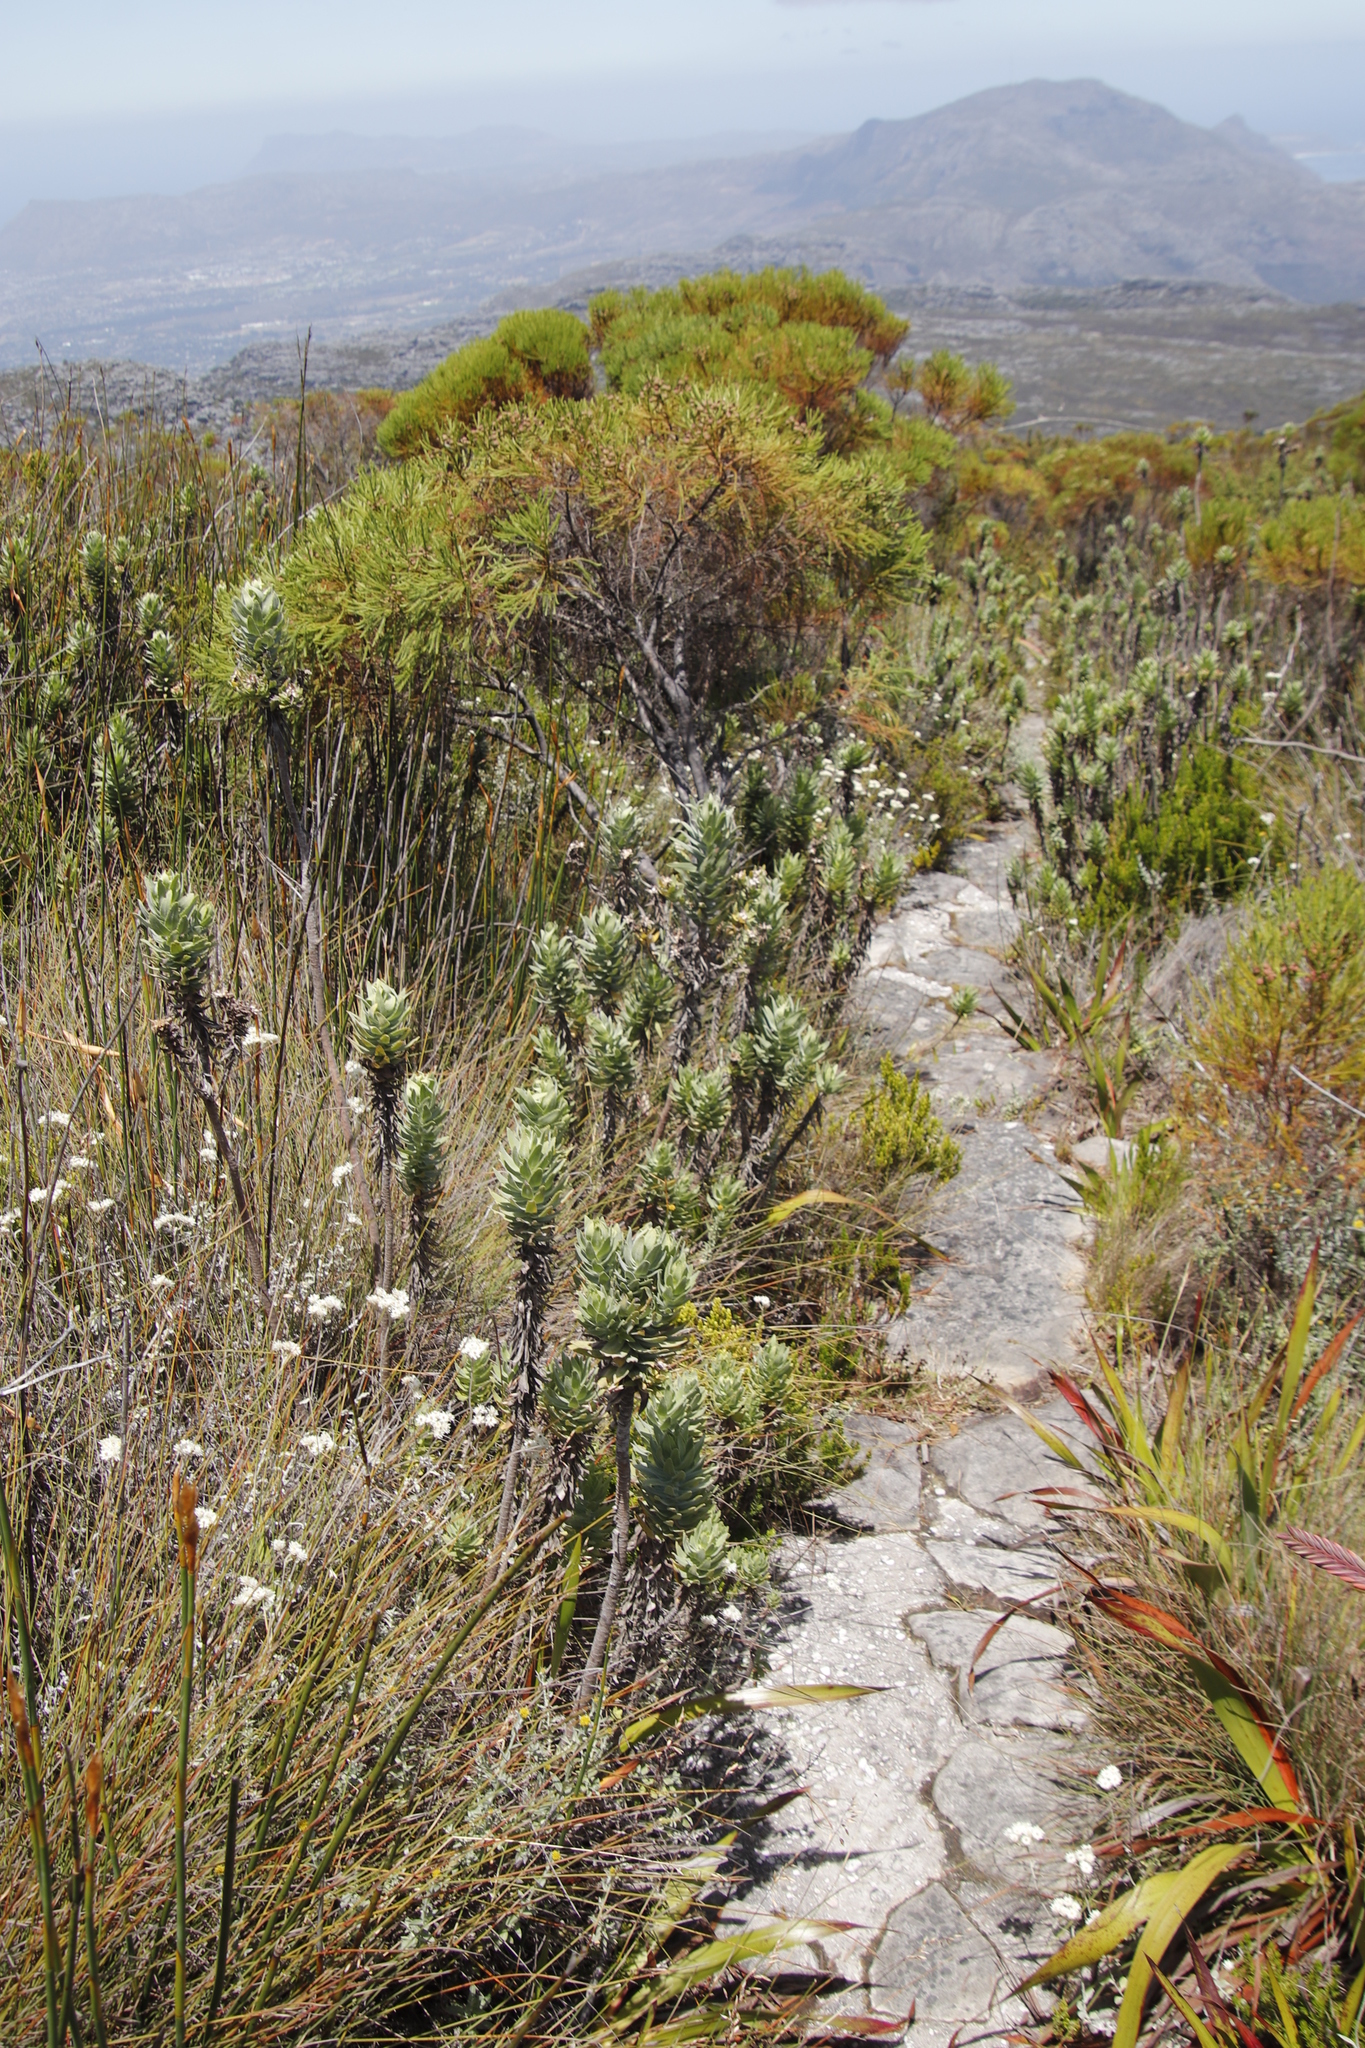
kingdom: Plantae
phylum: Tracheophyta
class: Magnoliopsida
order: Asterales
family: Asteraceae
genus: Osmitopsis
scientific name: Osmitopsis asteriscoides
